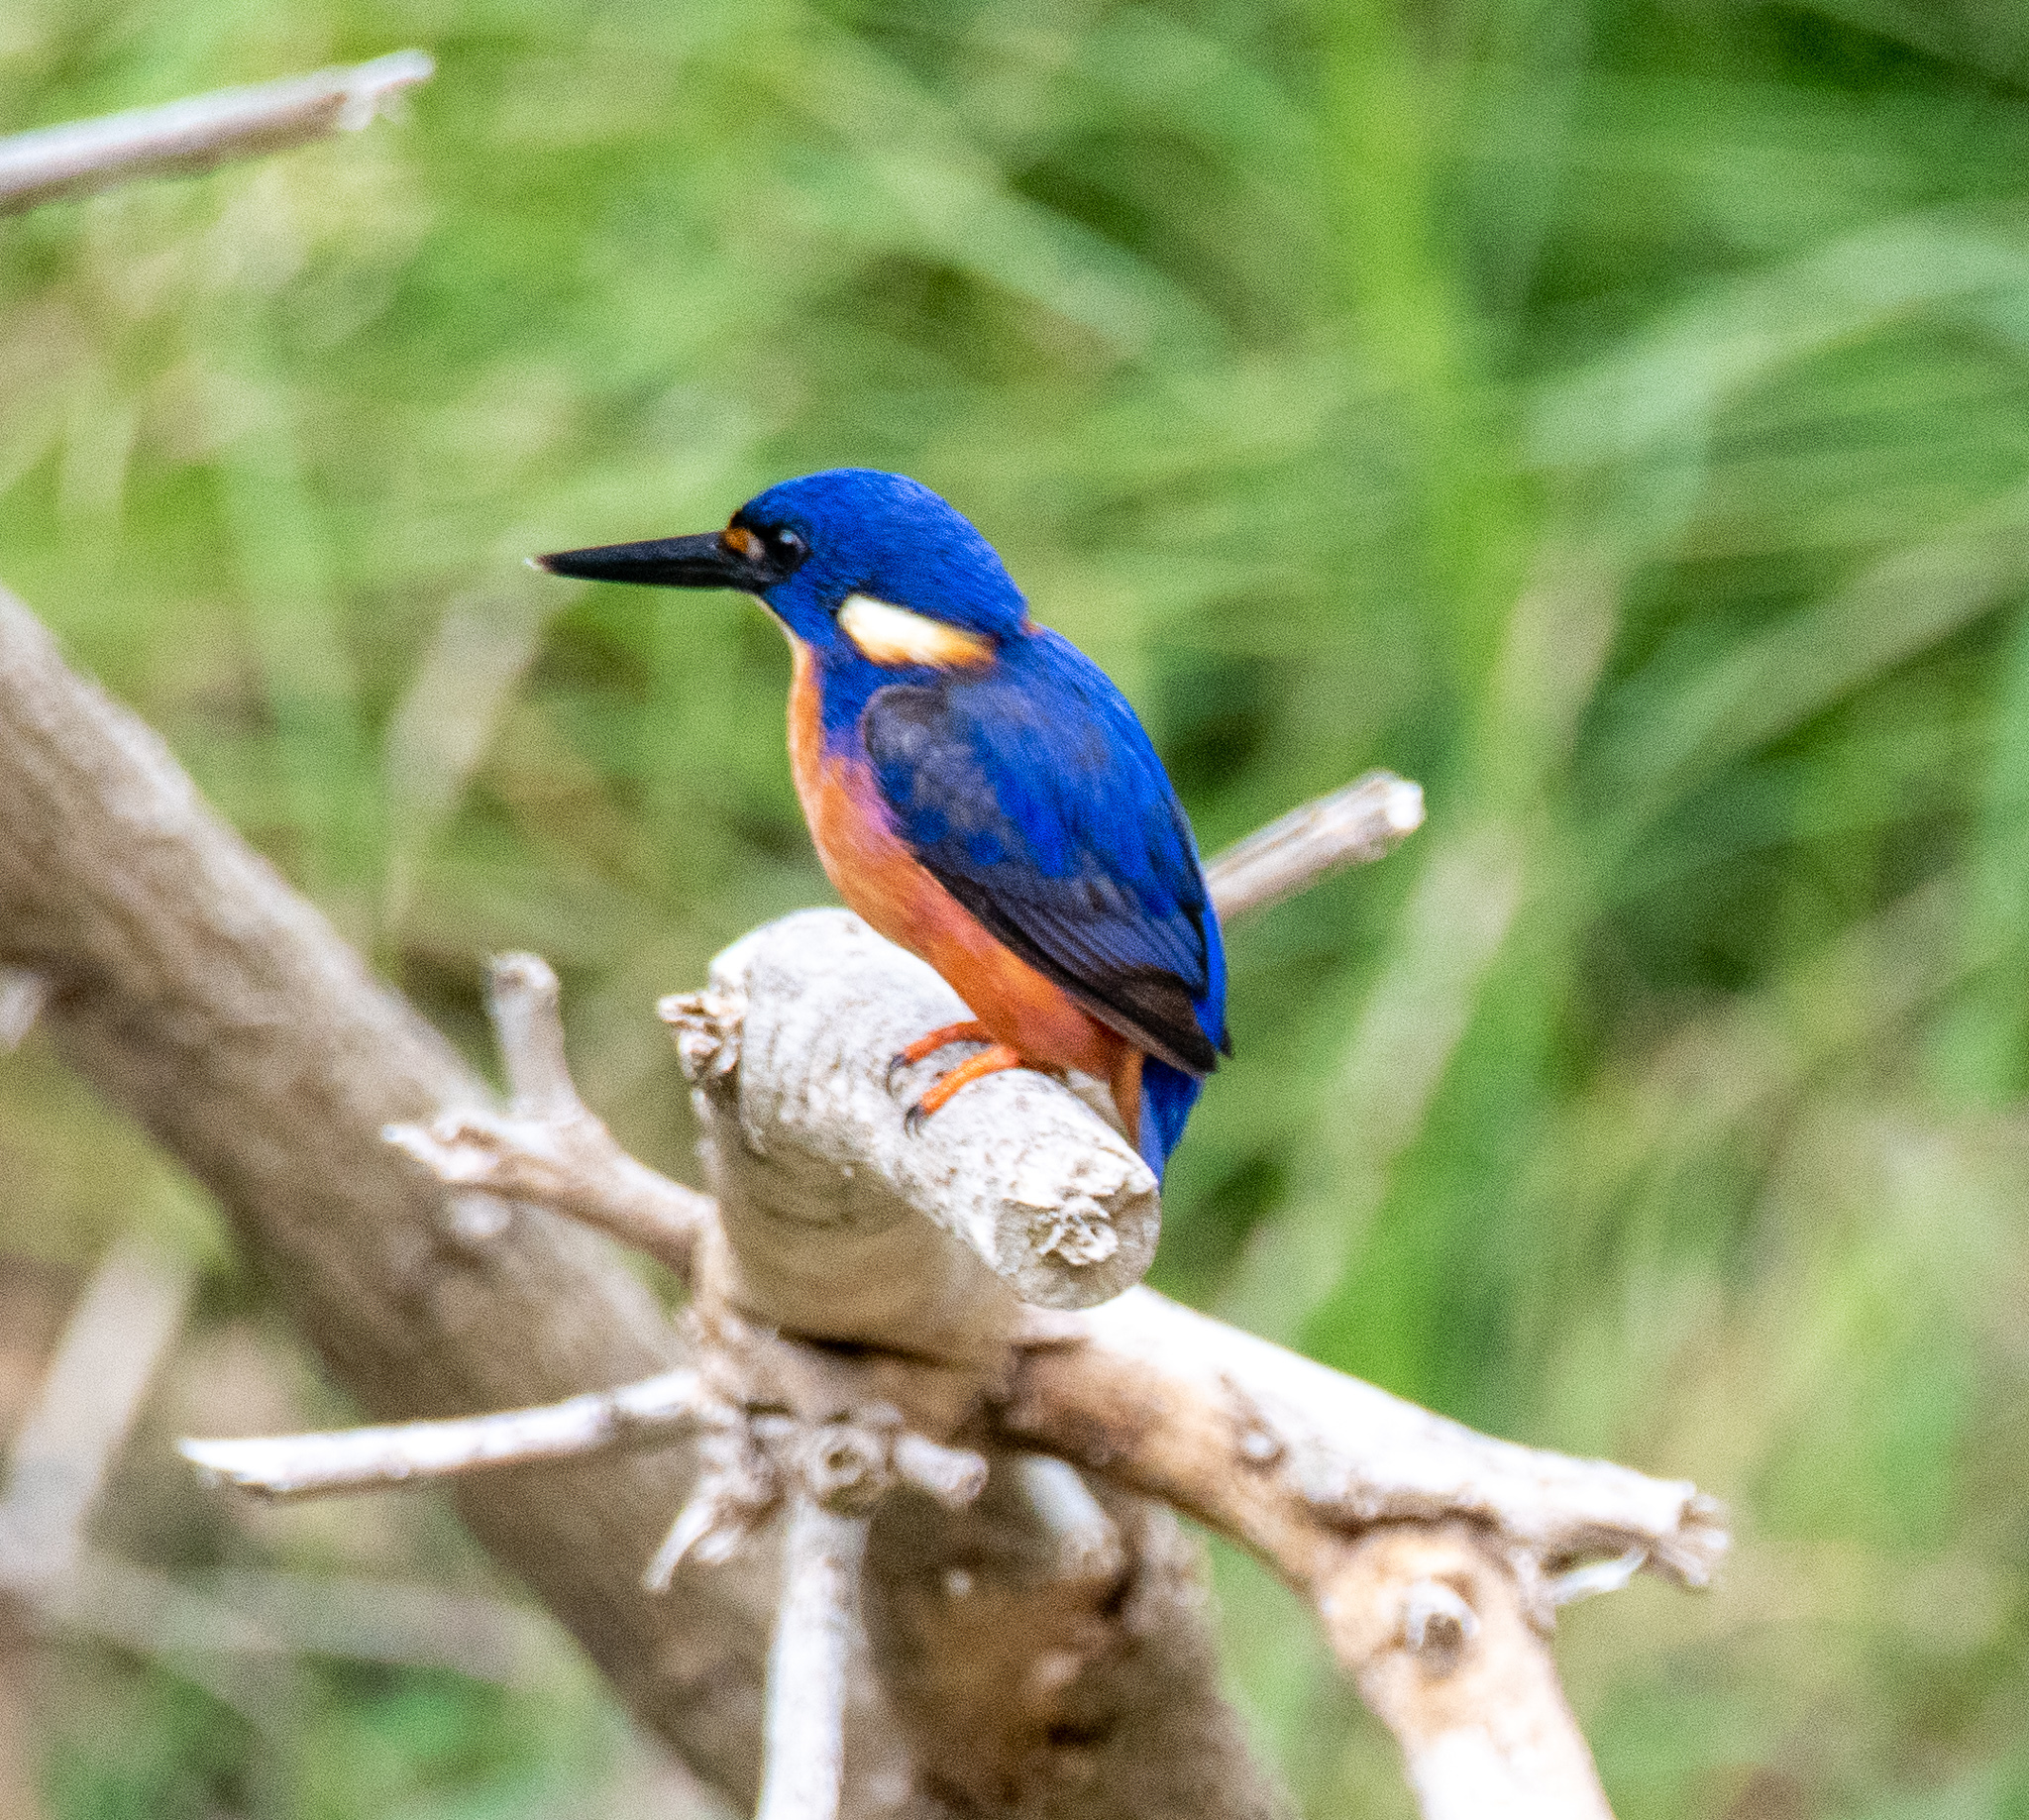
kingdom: Animalia
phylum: Chordata
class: Aves
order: Coraciiformes
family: Alcedinidae
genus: Ceyx
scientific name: Ceyx azureus
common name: Azure kingfisher
